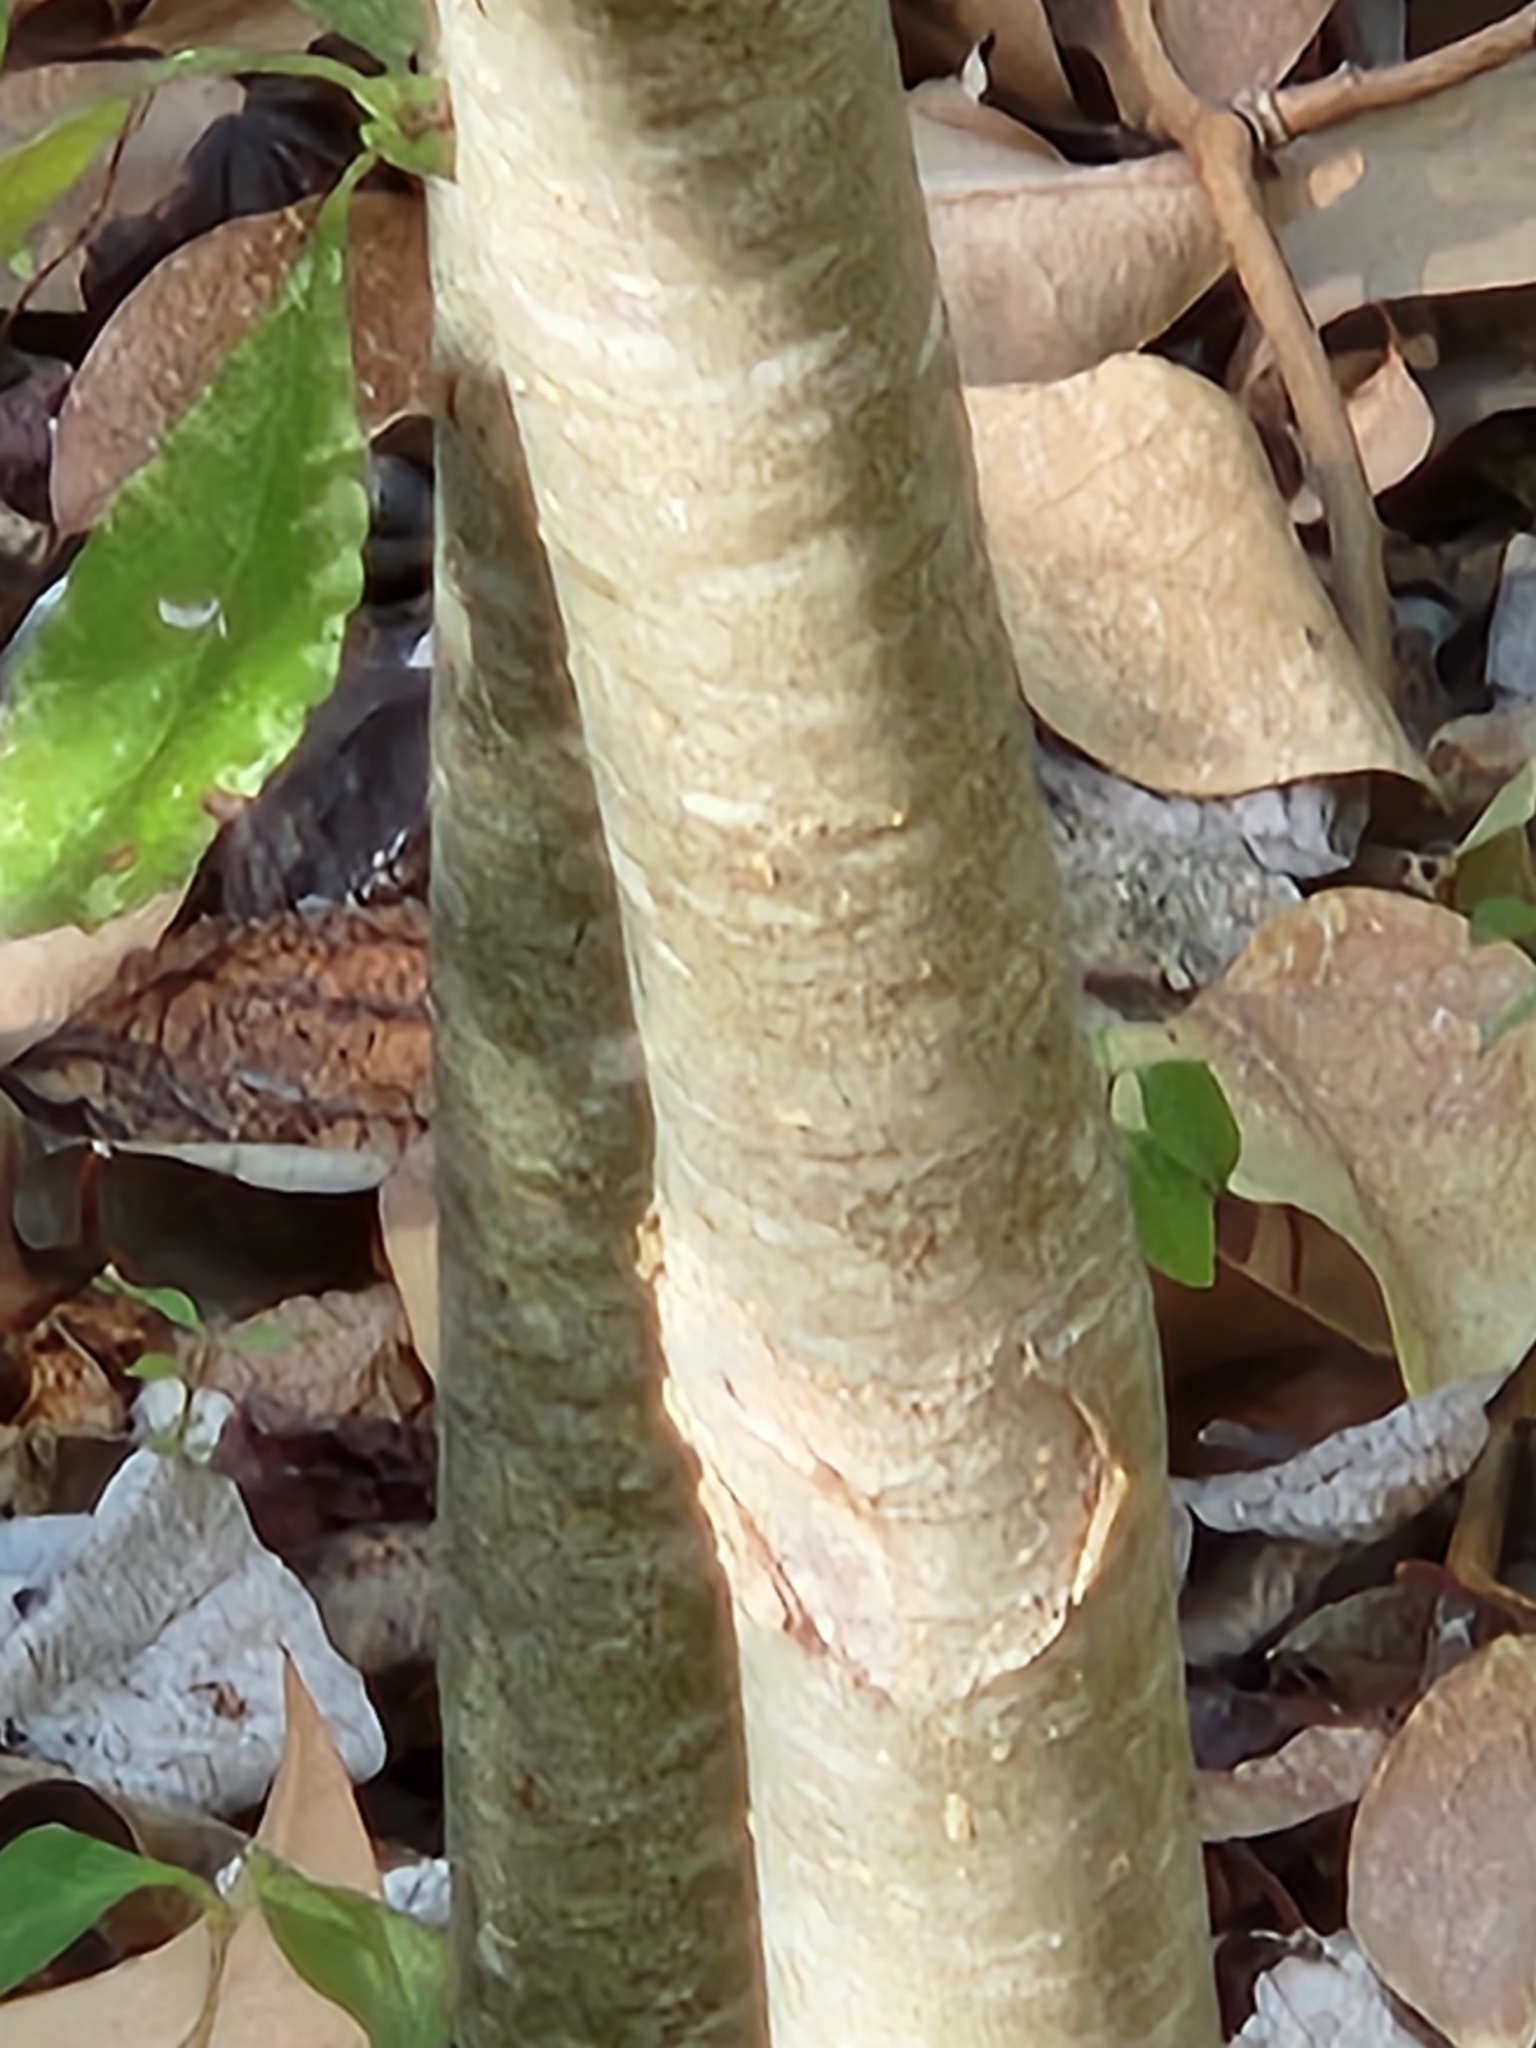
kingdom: Plantae
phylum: Tracheophyta
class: Magnoliopsida
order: Aquifoliales
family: Aquifoliaceae
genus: Ilex
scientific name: Ilex decidua
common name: Possum-haw
